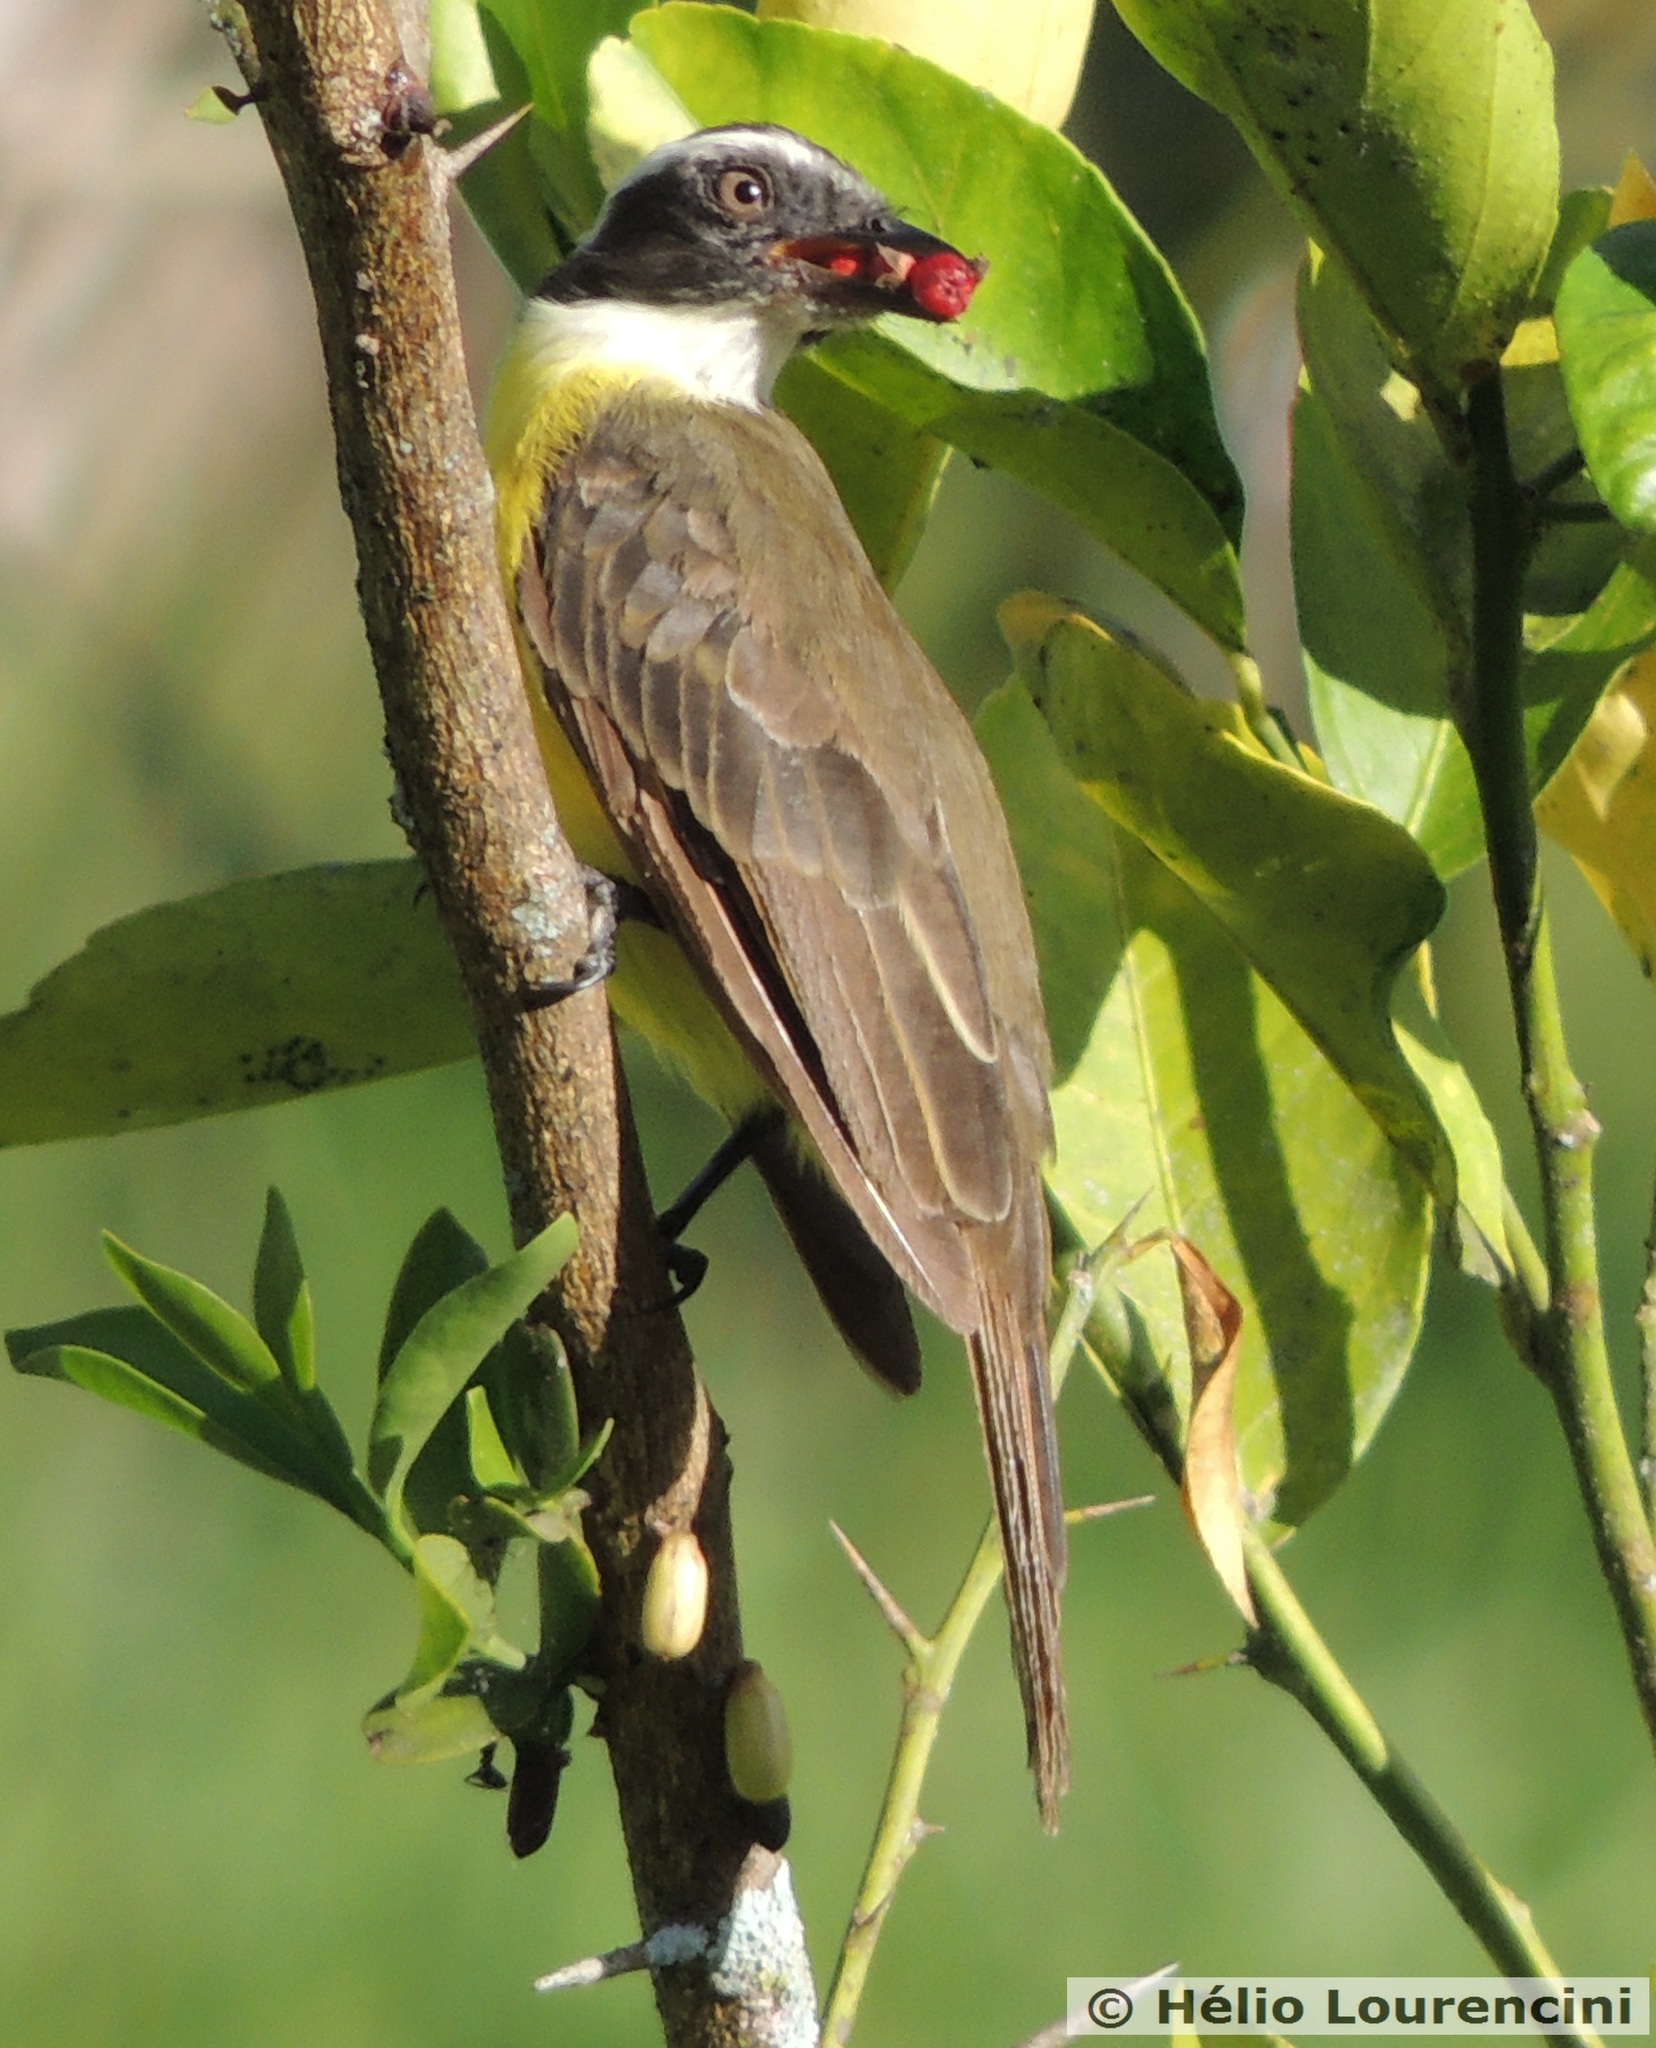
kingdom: Animalia
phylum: Chordata
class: Aves
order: Passeriformes
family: Tyrannidae
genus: Myiozetetes
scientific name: Myiozetetes similis
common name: Social flycatcher
